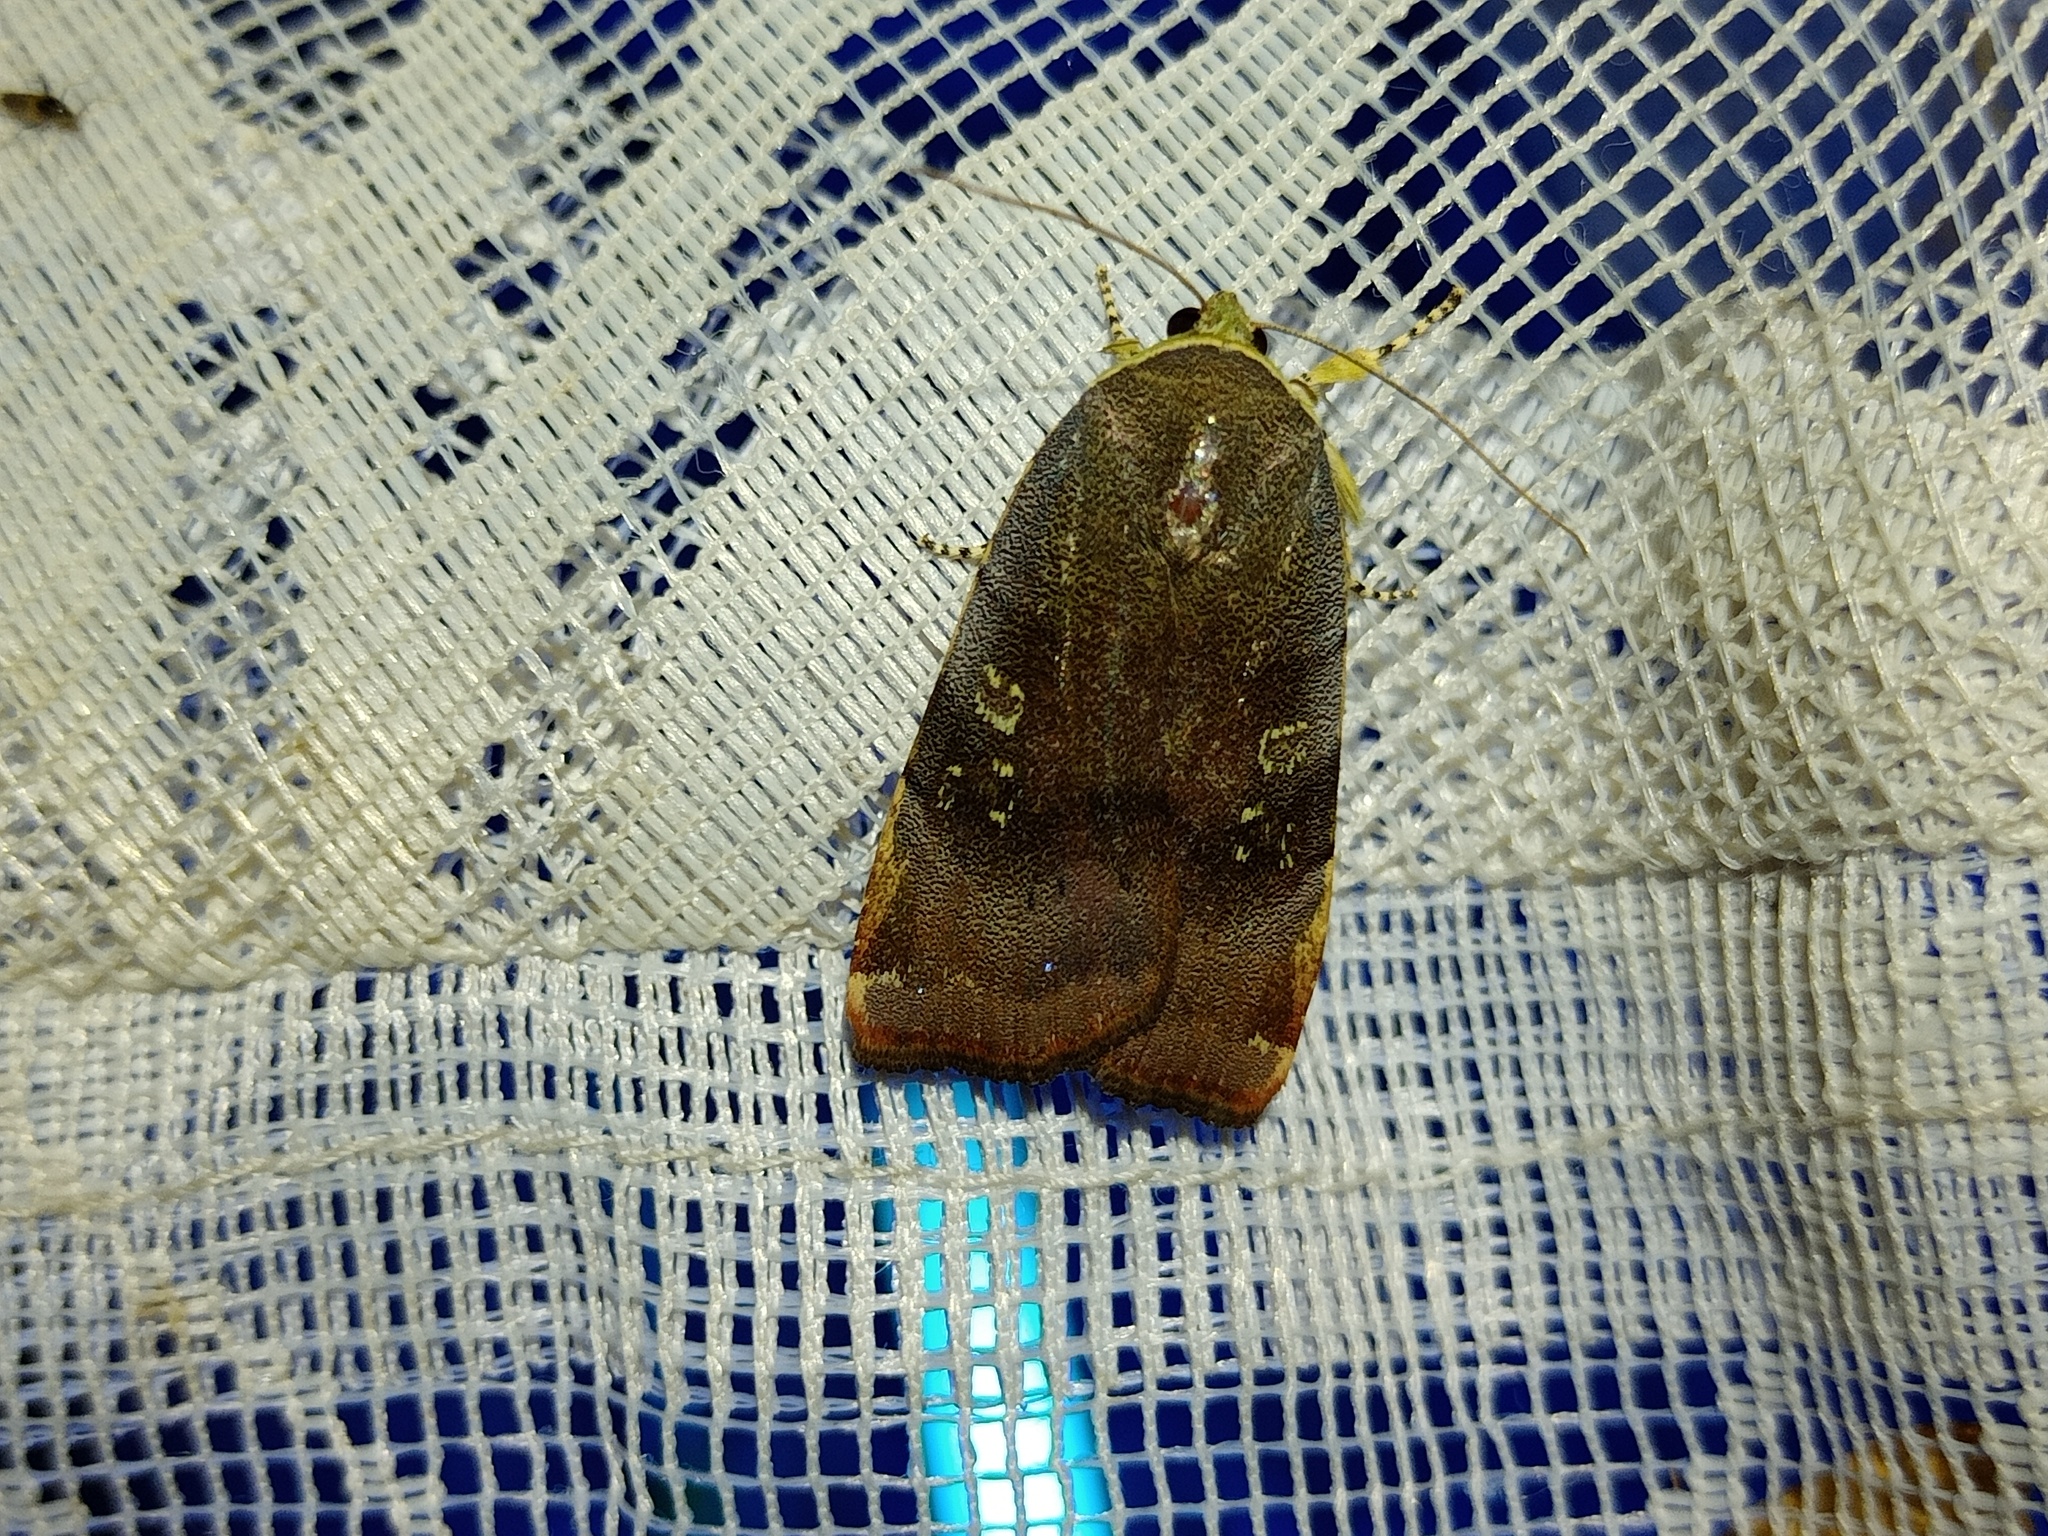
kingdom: Animalia
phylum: Arthropoda
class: Insecta
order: Lepidoptera
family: Noctuidae
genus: Noctua
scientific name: Noctua janthina
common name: Langmaid's yellow underwing
